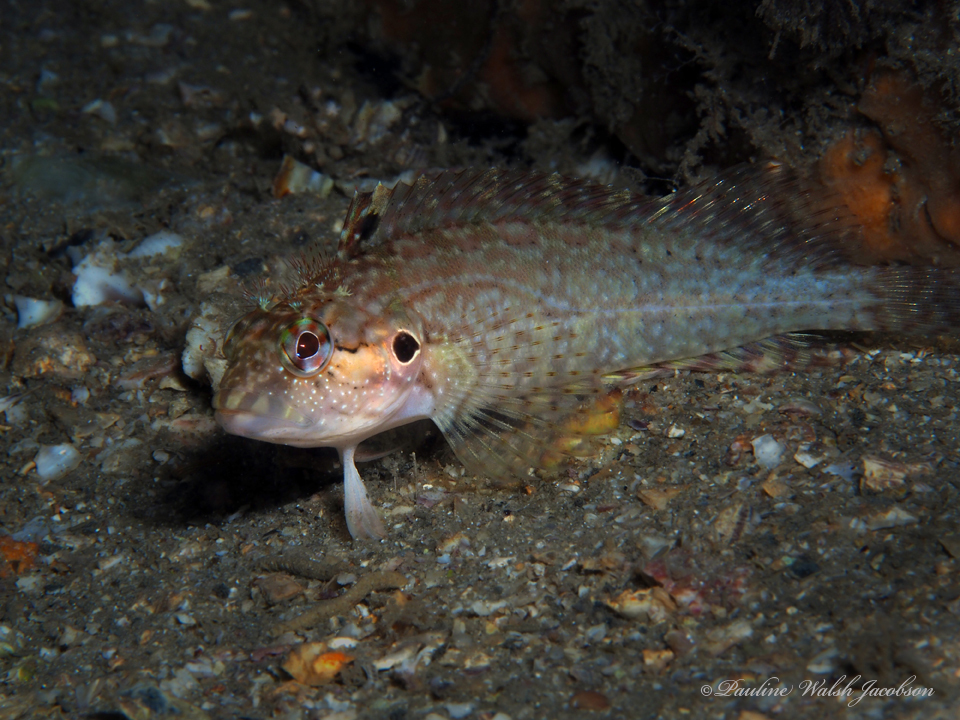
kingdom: Animalia
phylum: Chordata
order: Perciformes
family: Labrisomidae
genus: Labrisomus
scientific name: Labrisomus nuchipinnis
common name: Hairy blenny
